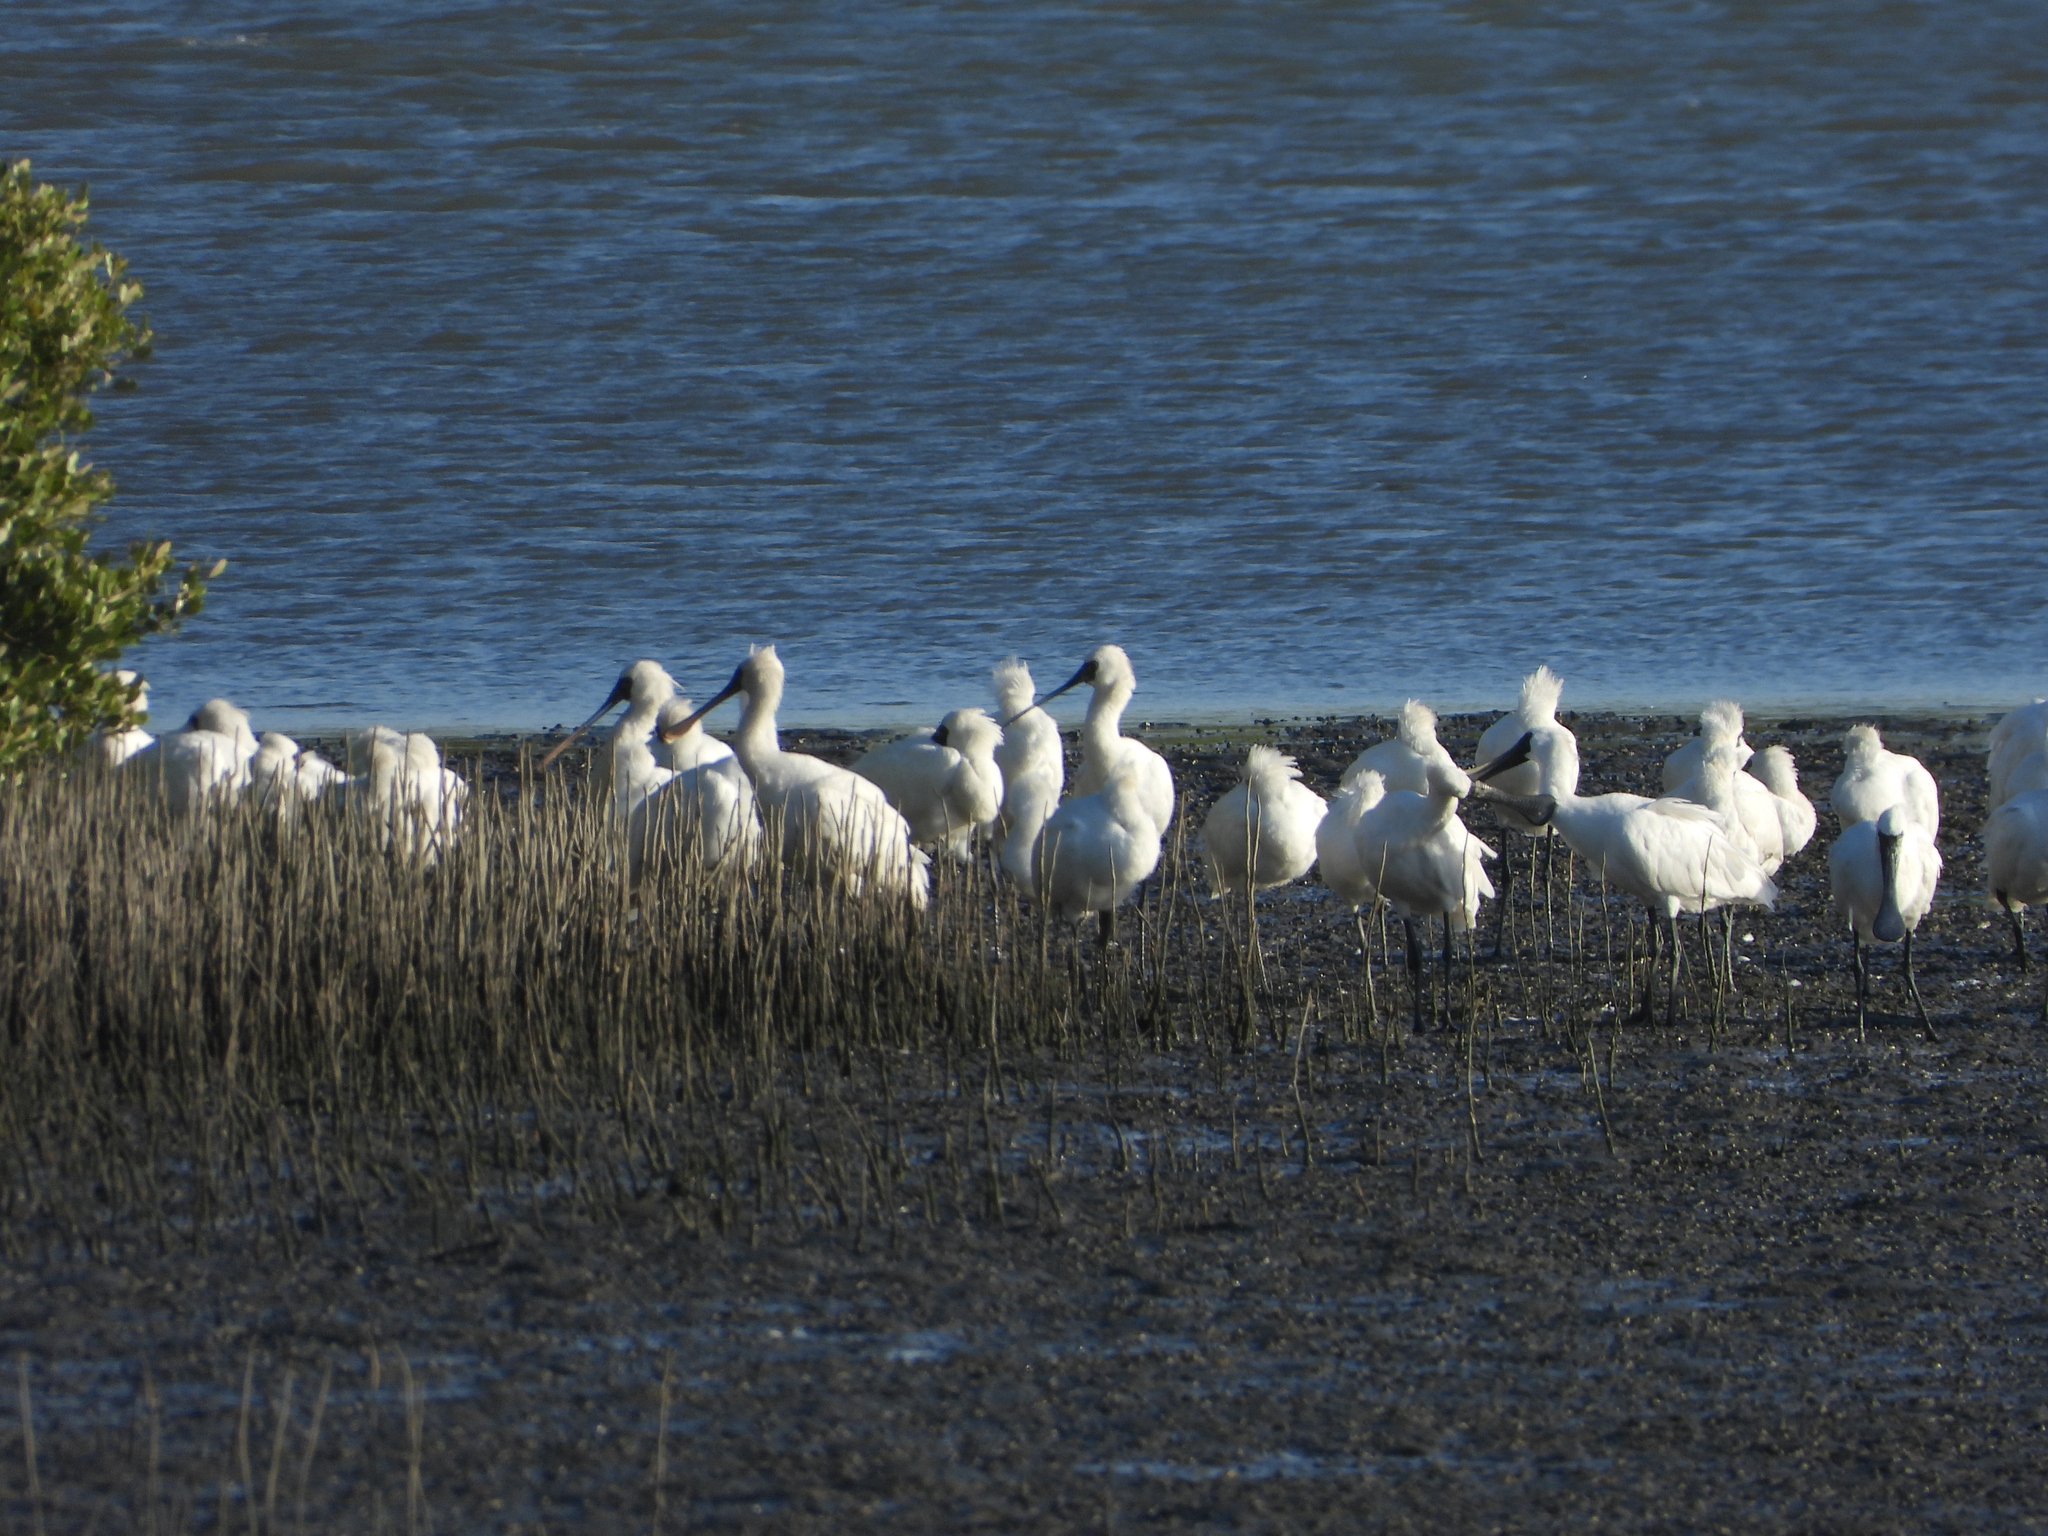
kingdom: Animalia
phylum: Chordata
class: Aves
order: Pelecaniformes
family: Threskiornithidae
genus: Platalea
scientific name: Platalea minor
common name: Black-faced spoonbill
